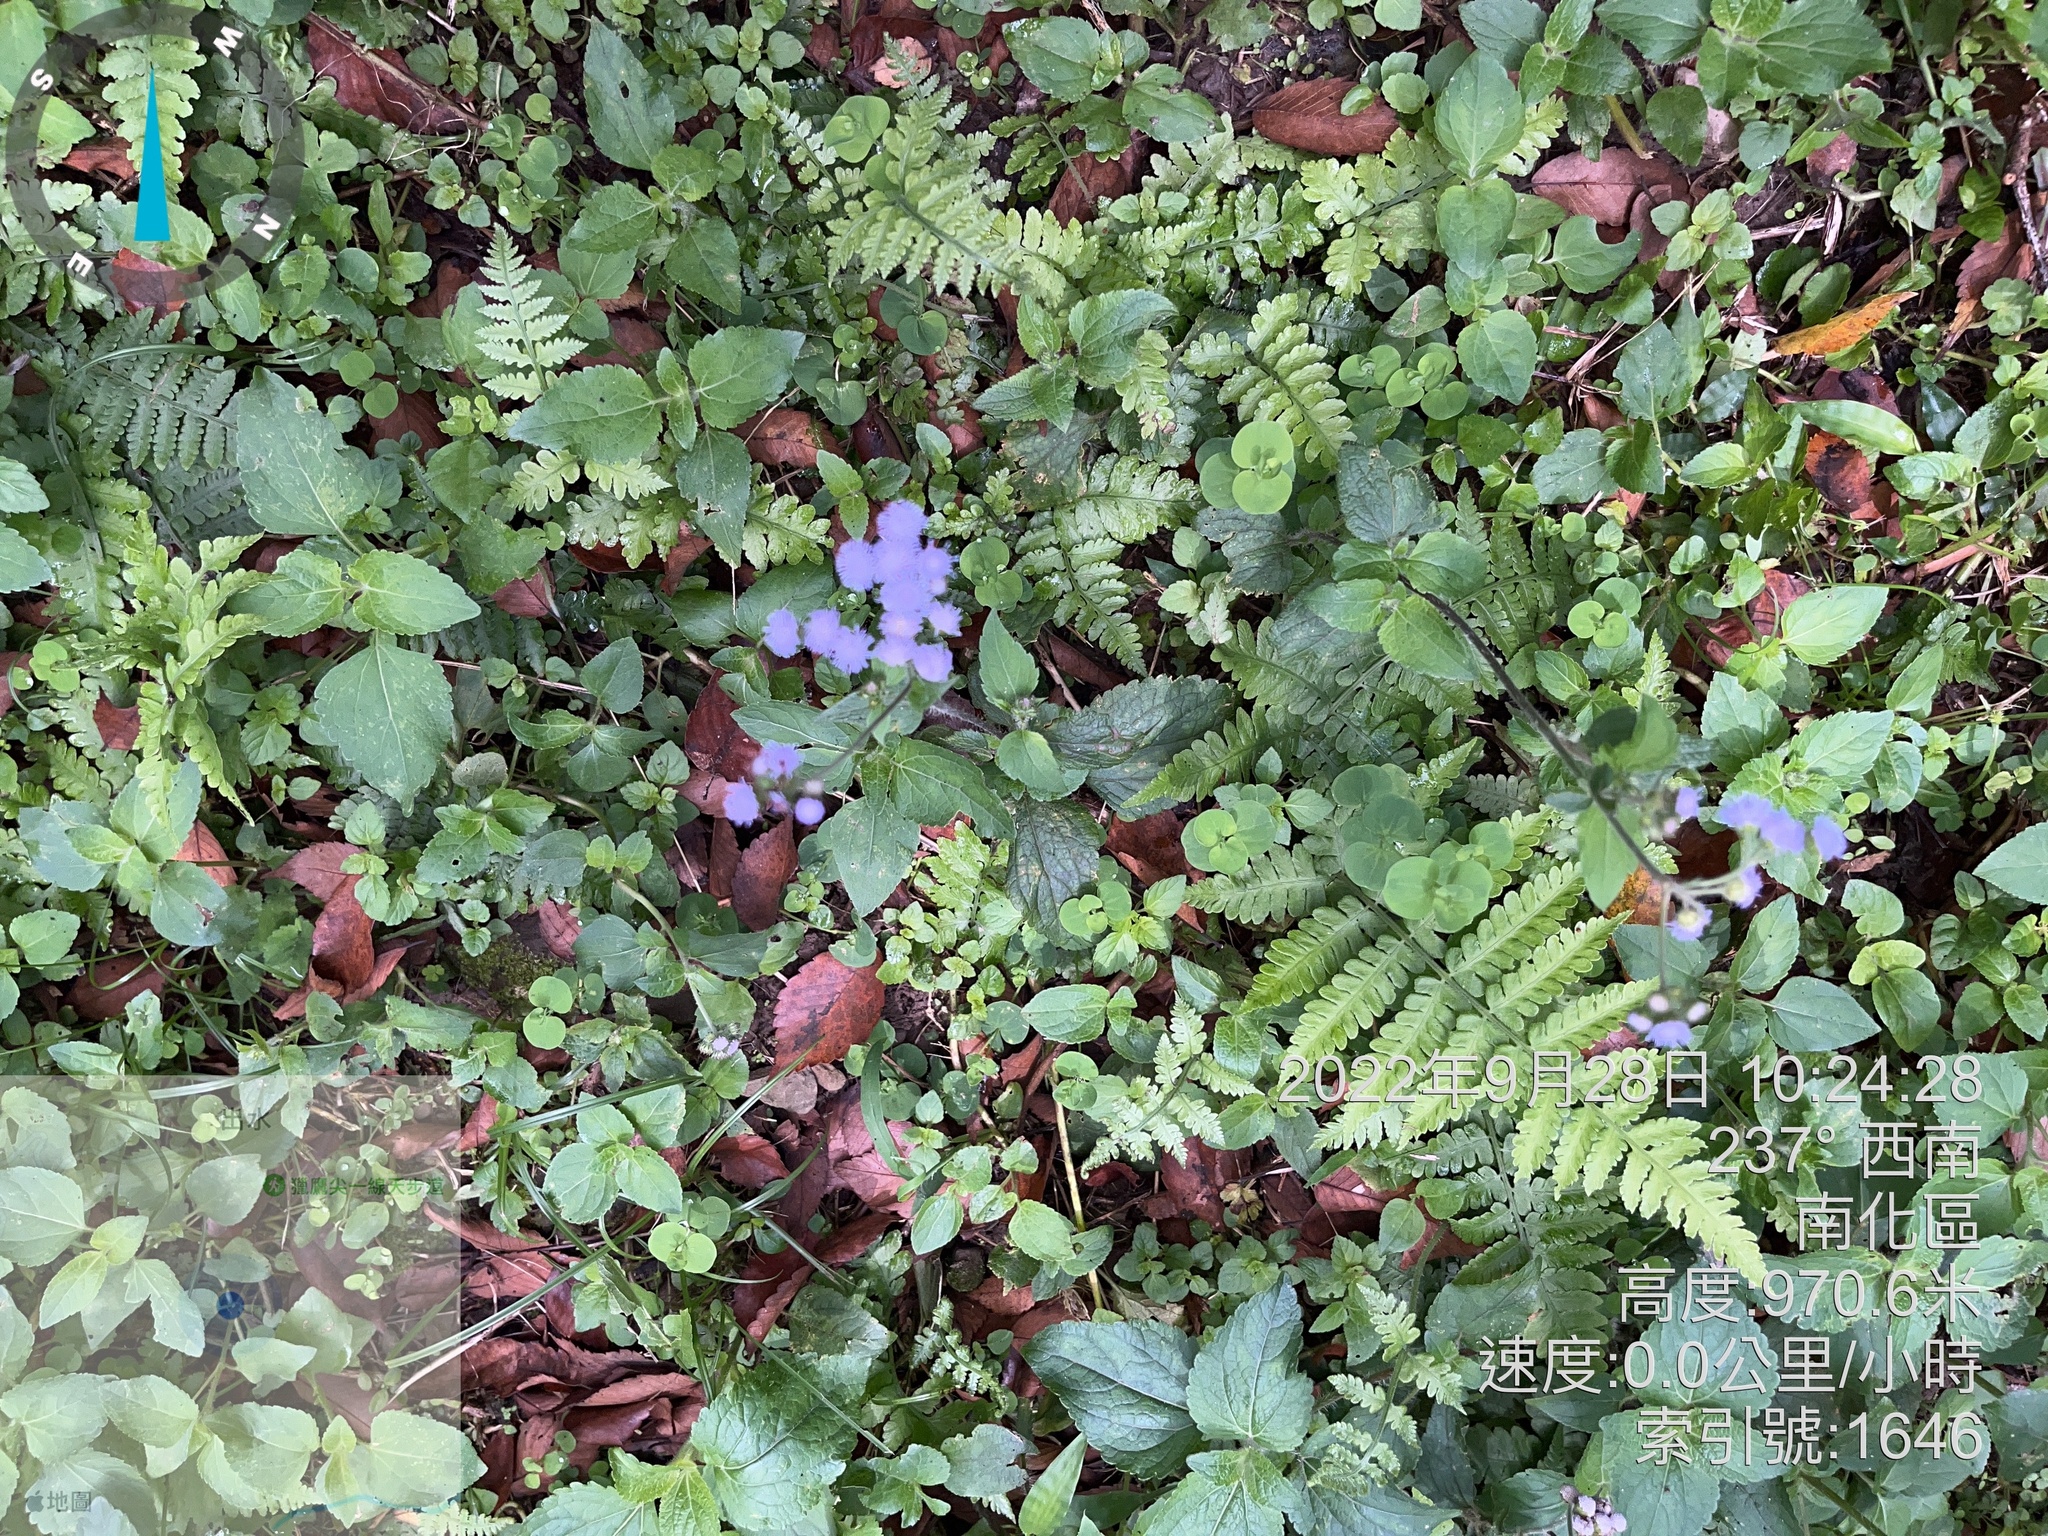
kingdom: Plantae
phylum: Tracheophyta
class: Magnoliopsida
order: Asterales
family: Asteraceae
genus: Ageratum
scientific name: Ageratum houstonianum
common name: Bluemink
